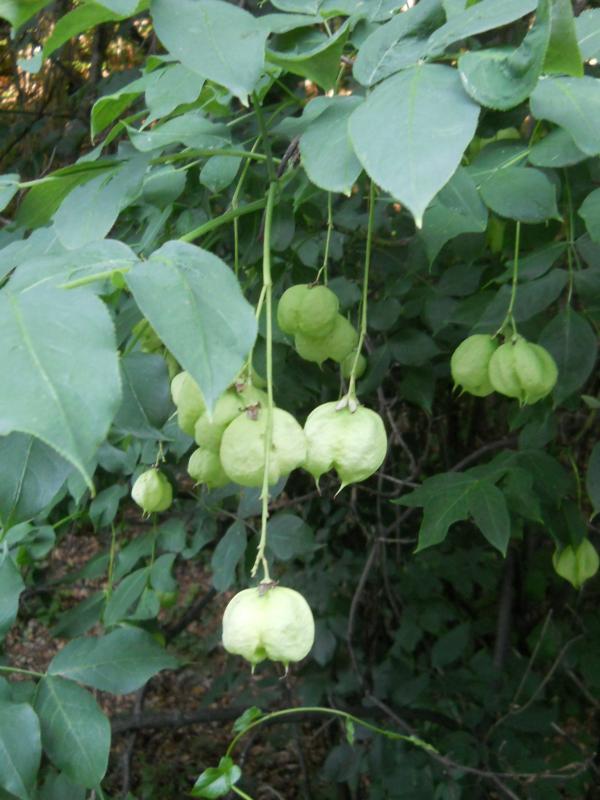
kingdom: Plantae
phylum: Tracheophyta
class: Magnoliopsida
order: Crossosomatales
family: Staphyleaceae
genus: Staphylea
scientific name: Staphylea pinnata
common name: Bladdernut
